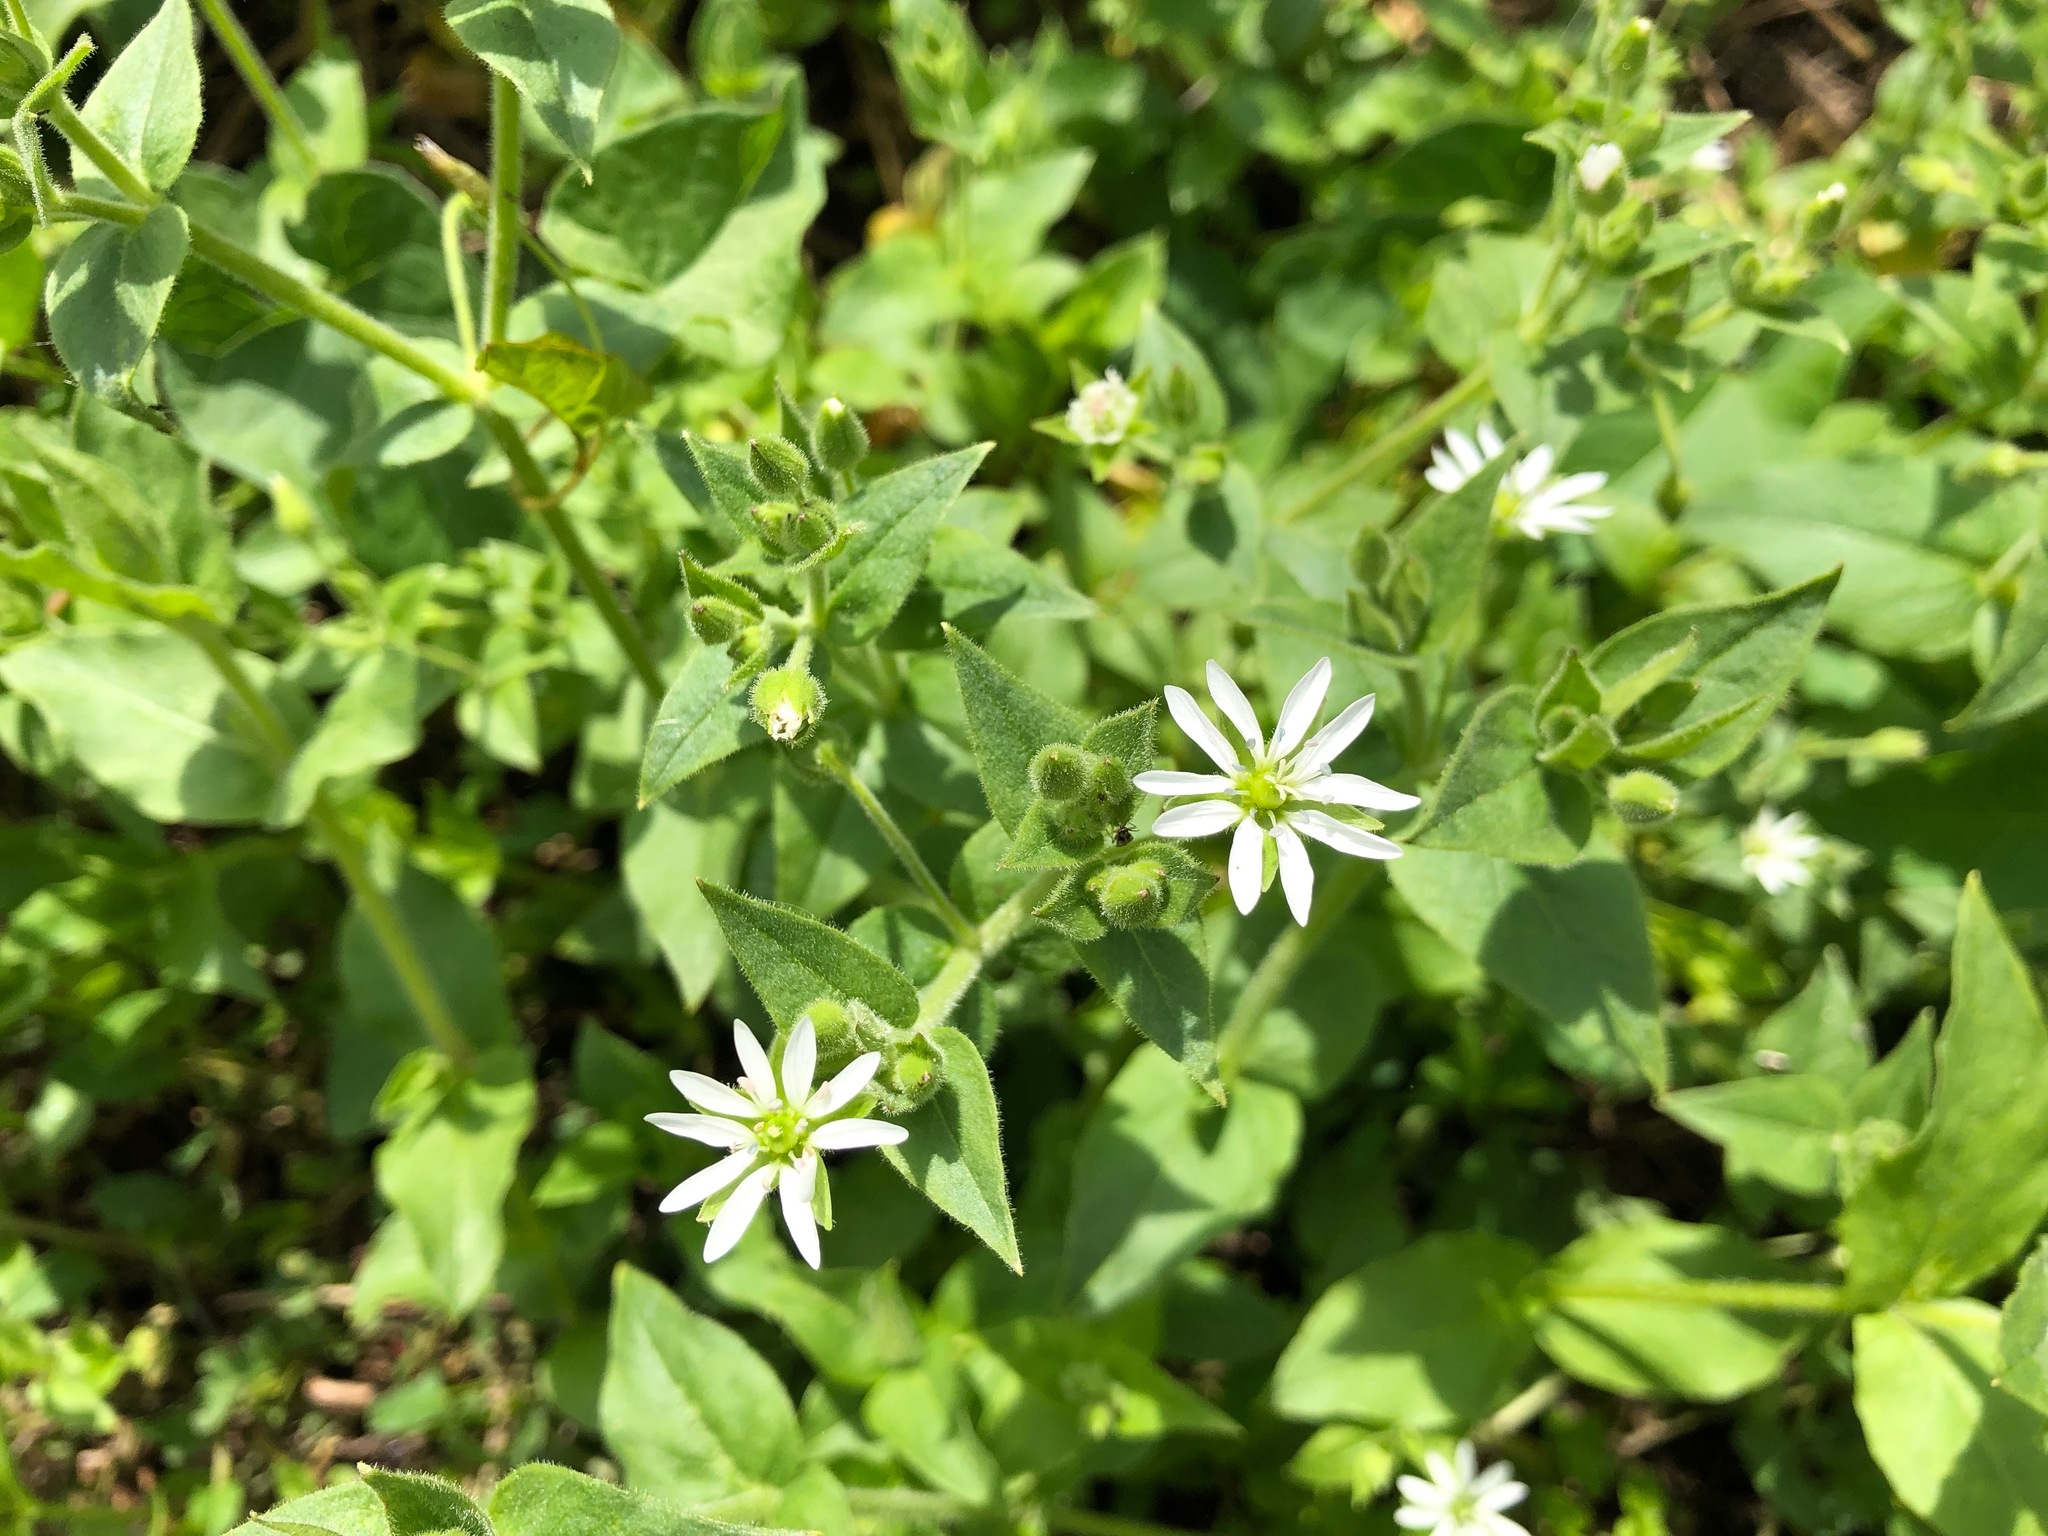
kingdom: Plantae
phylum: Tracheophyta
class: Magnoliopsida
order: Caryophyllales
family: Caryophyllaceae
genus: Stellaria
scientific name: Stellaria aquatica
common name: Water chickweed
